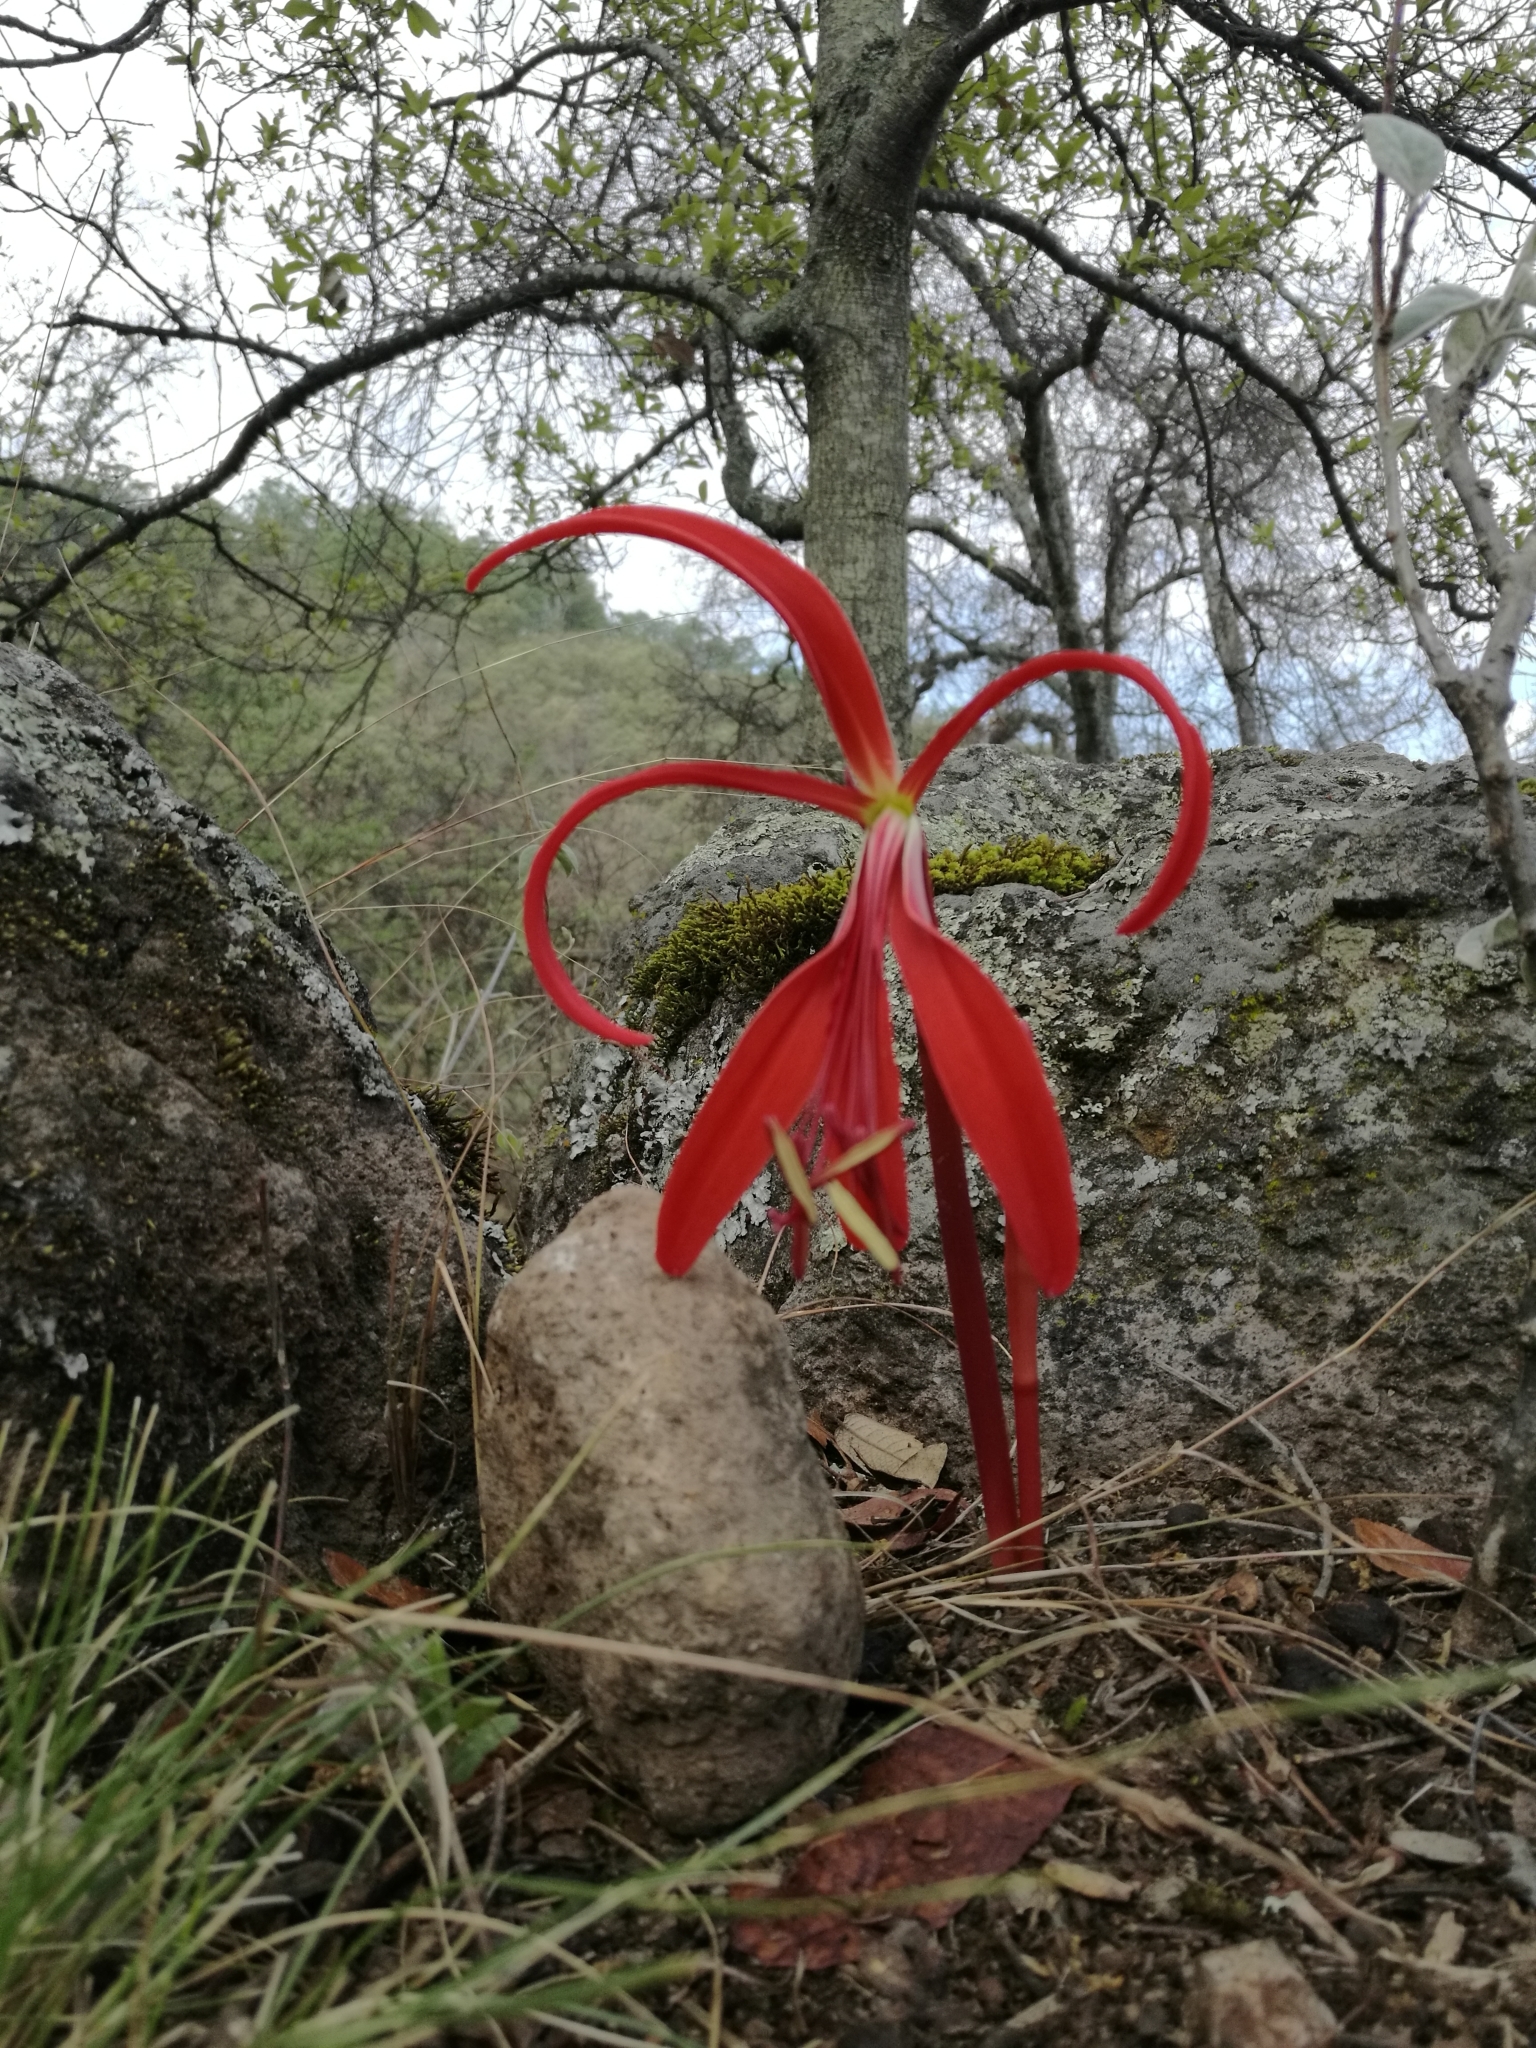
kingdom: Plantae
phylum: Tracheophyta
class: Liliopsida
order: Asparagales
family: Amaryllidaceae
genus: Sprekelia
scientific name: Sprekelia formosissima
